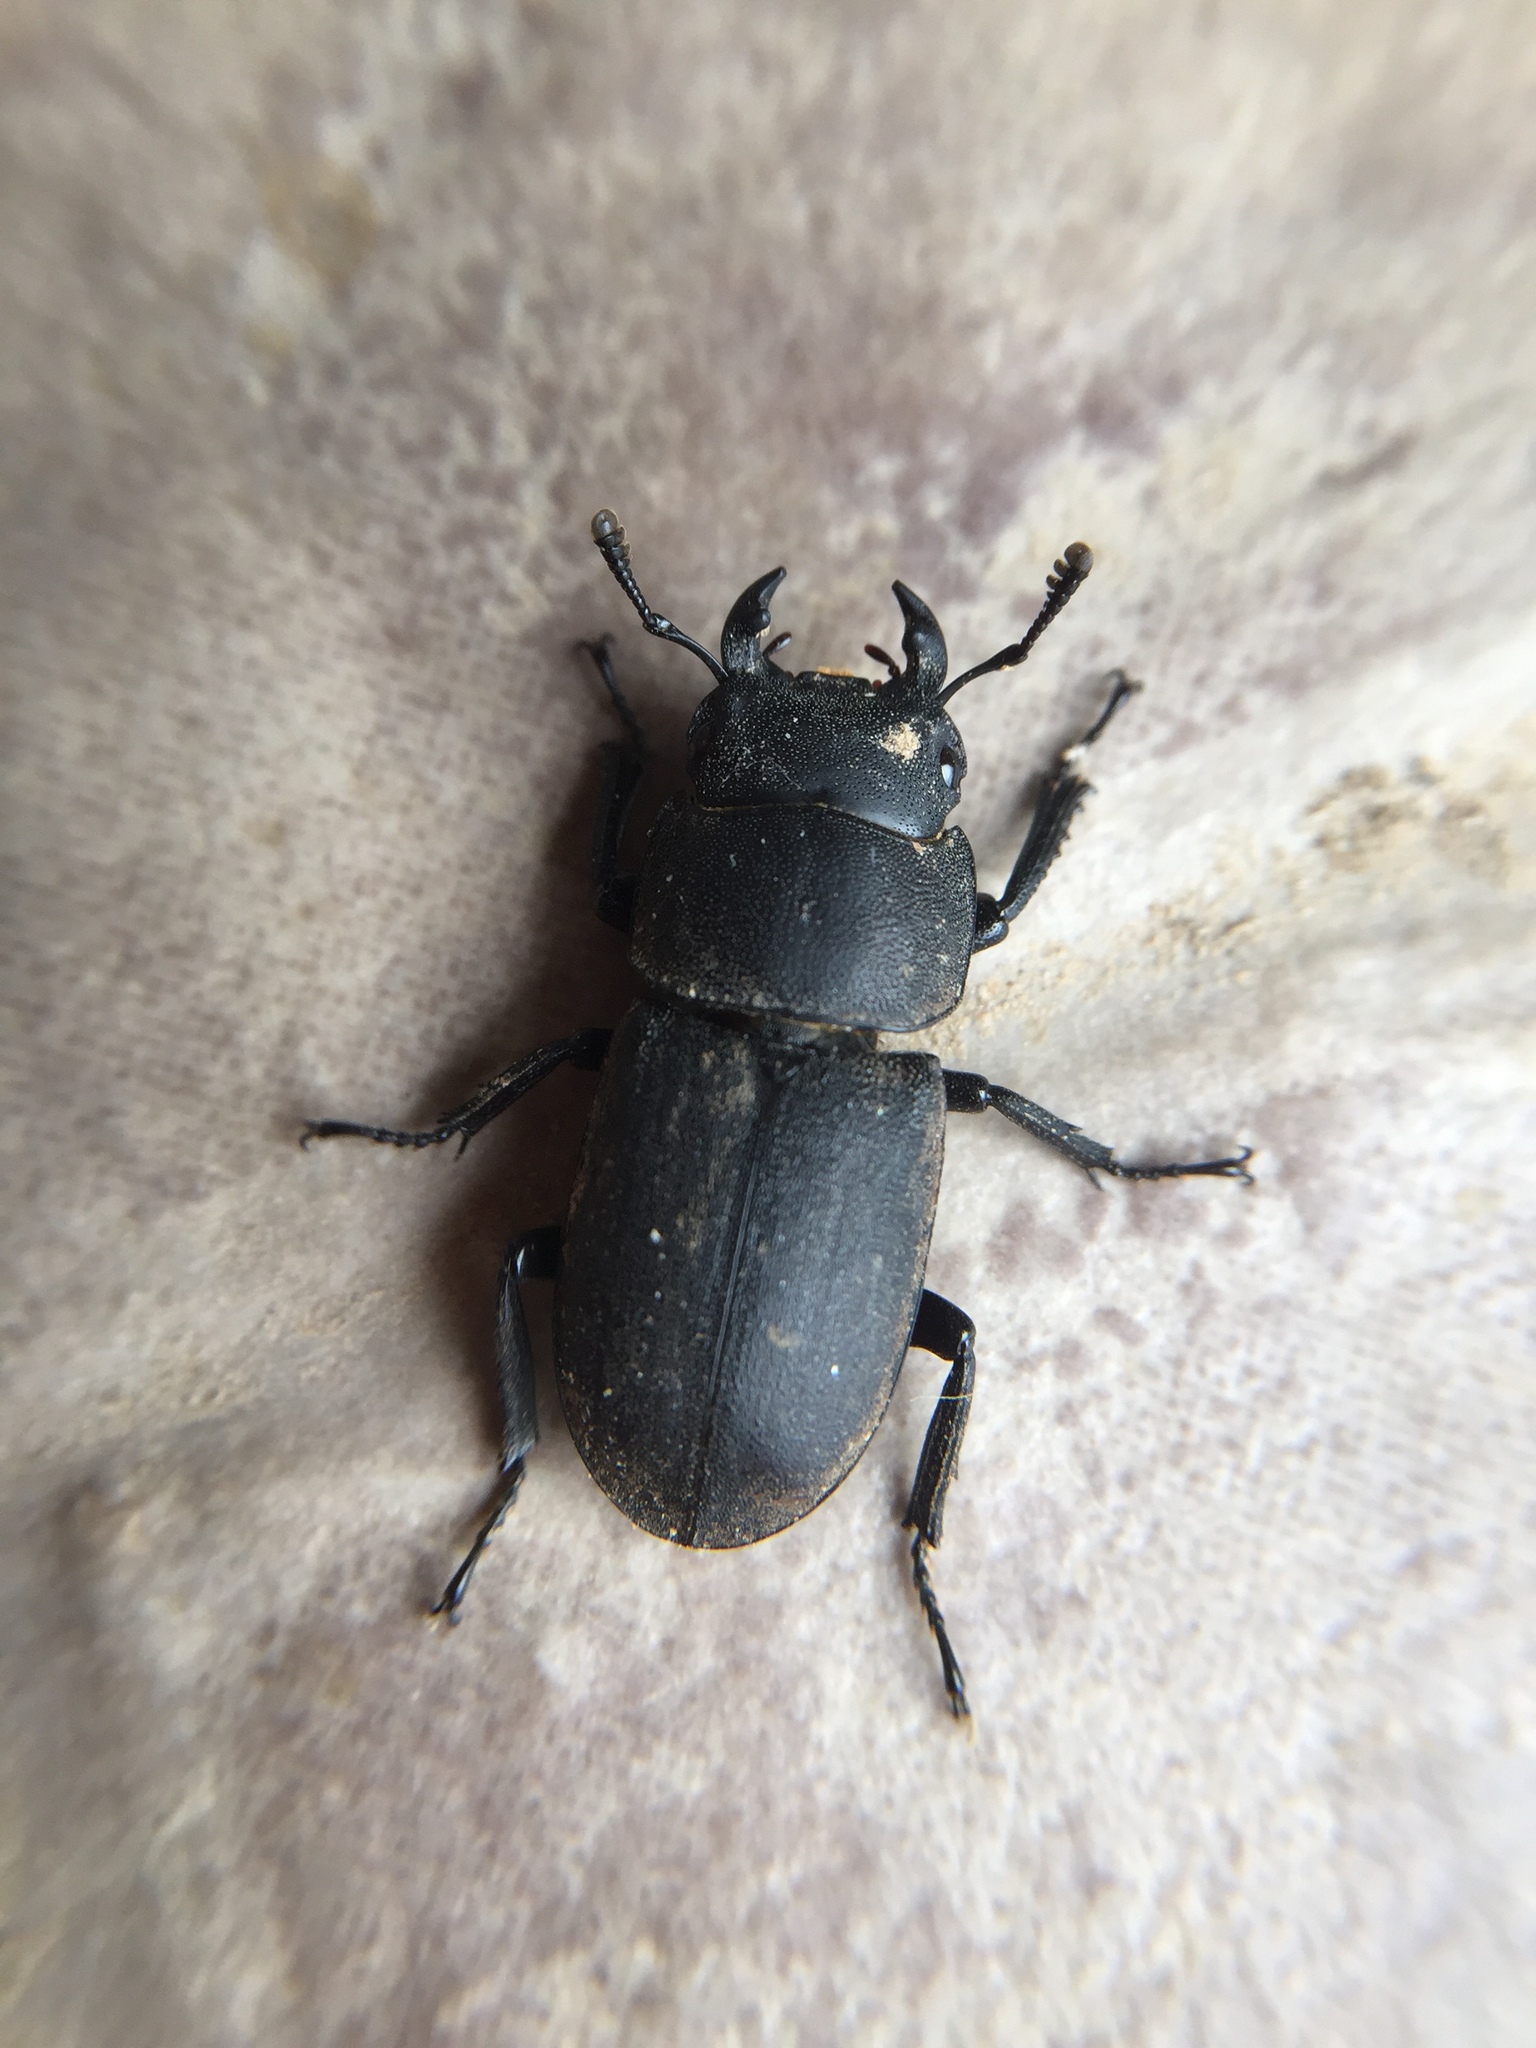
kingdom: Animalia
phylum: Arthropoda
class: Insecta
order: Coleoptera
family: Lucanidae
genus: Dorcus
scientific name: Dorcus parallelipipedus
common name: Lesser stag beetle
